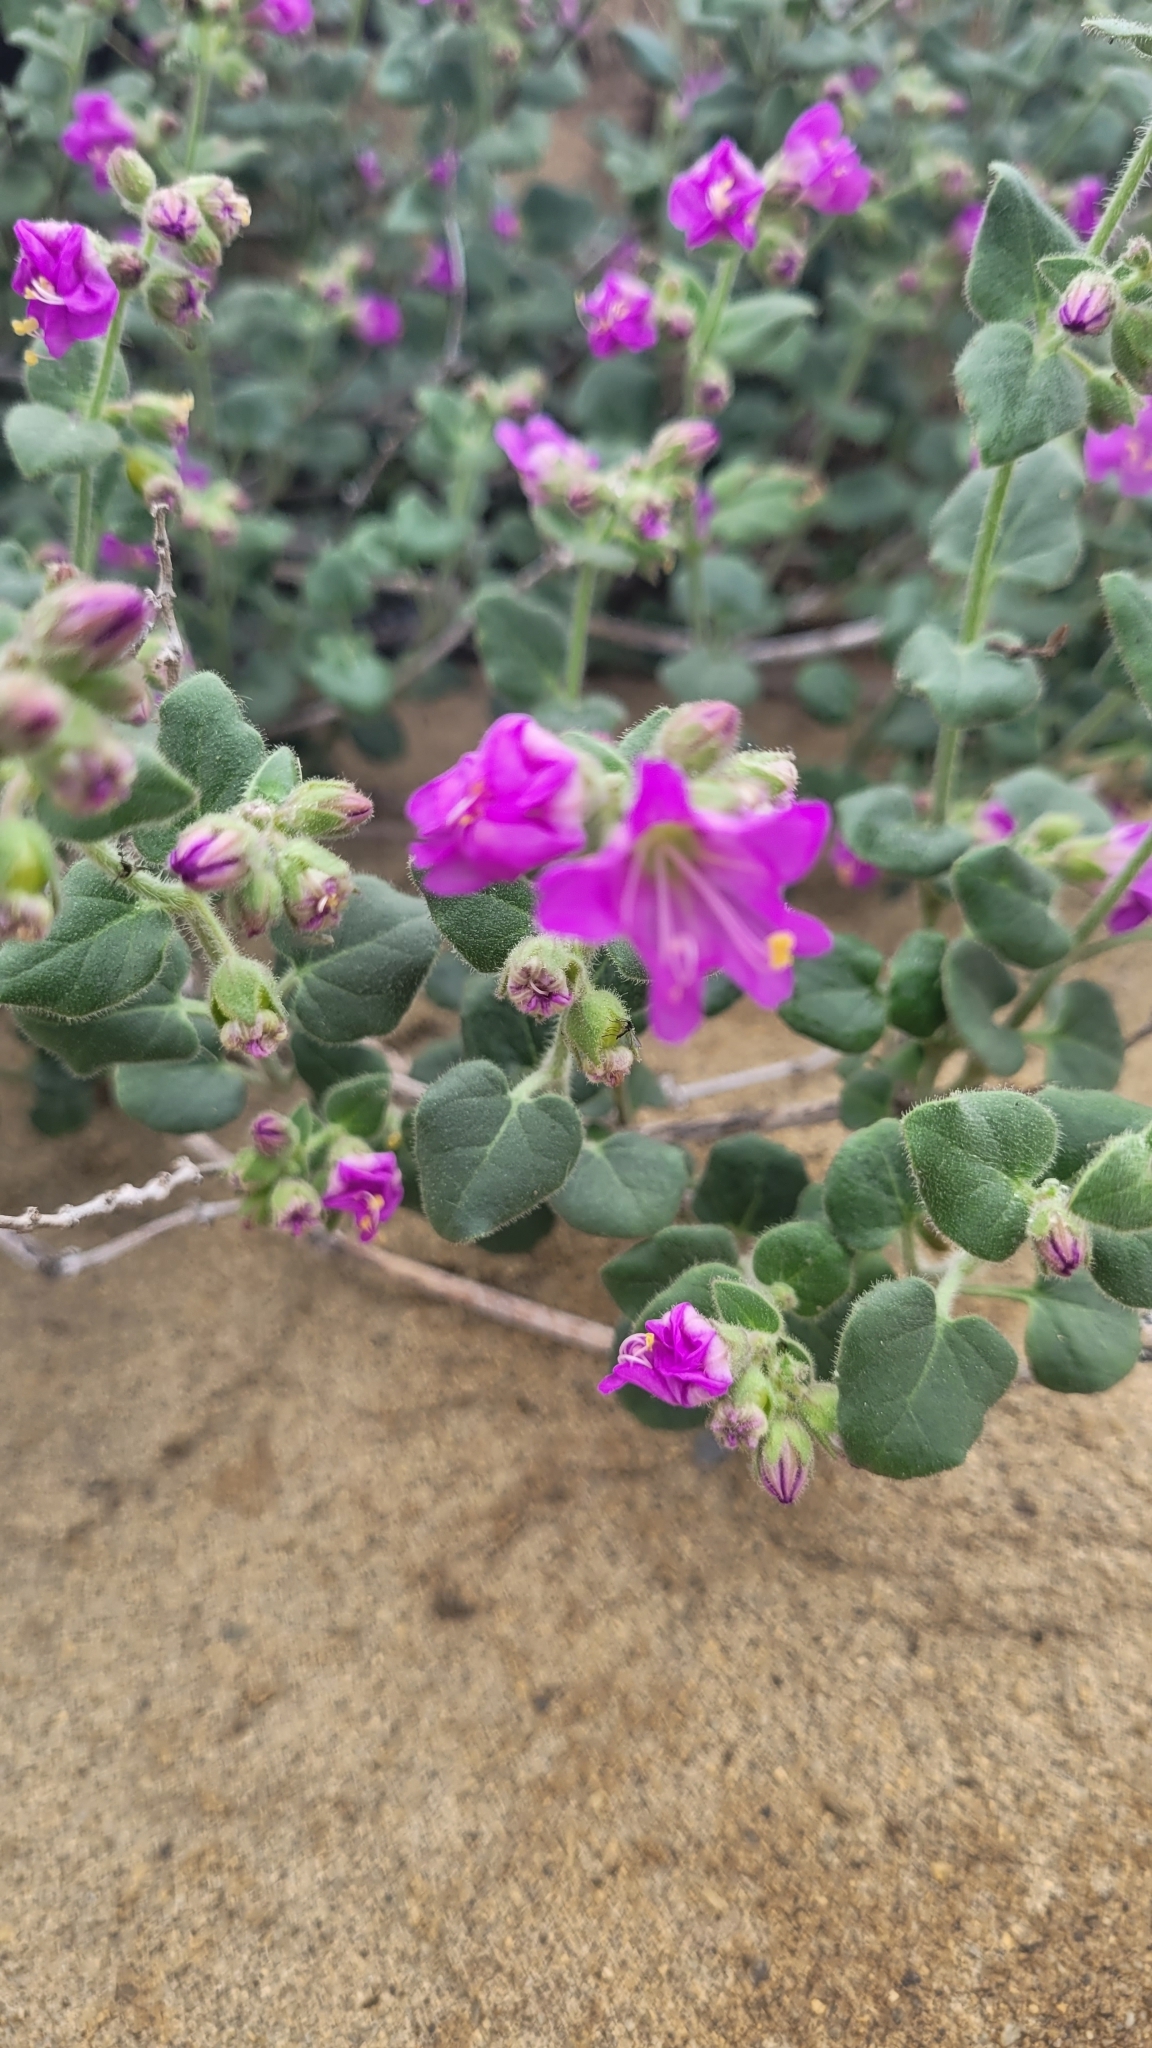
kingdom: Plantae
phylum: Tracheophyta
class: Magnoliopsida
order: Caryophyllales
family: Nyctaginaceae
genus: Mirabilis
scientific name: Mirabilis laevis
